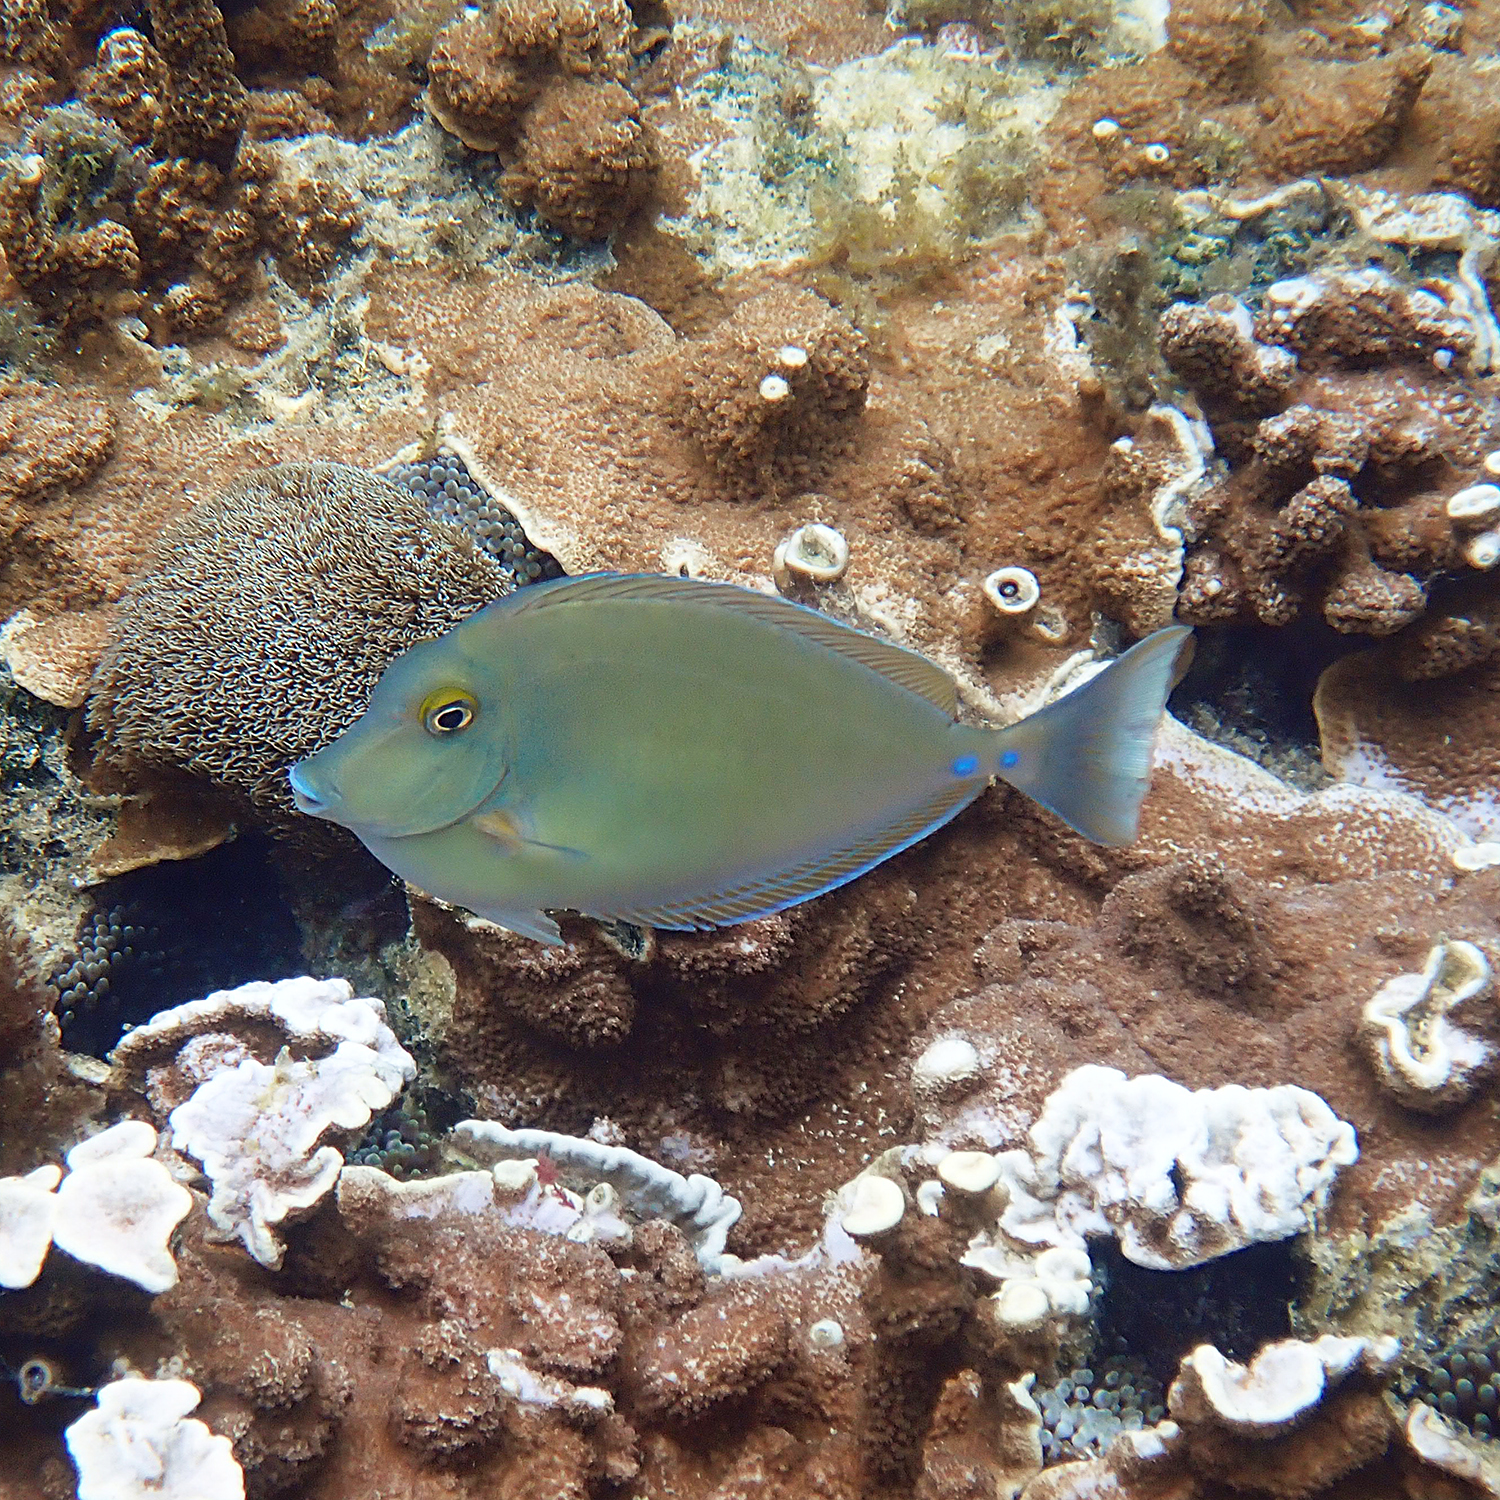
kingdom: Animalia
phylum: Chordata
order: Perciformes
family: Acanthuridae
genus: Naso
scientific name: Naso unicornis
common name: Bluespine unicornfish
